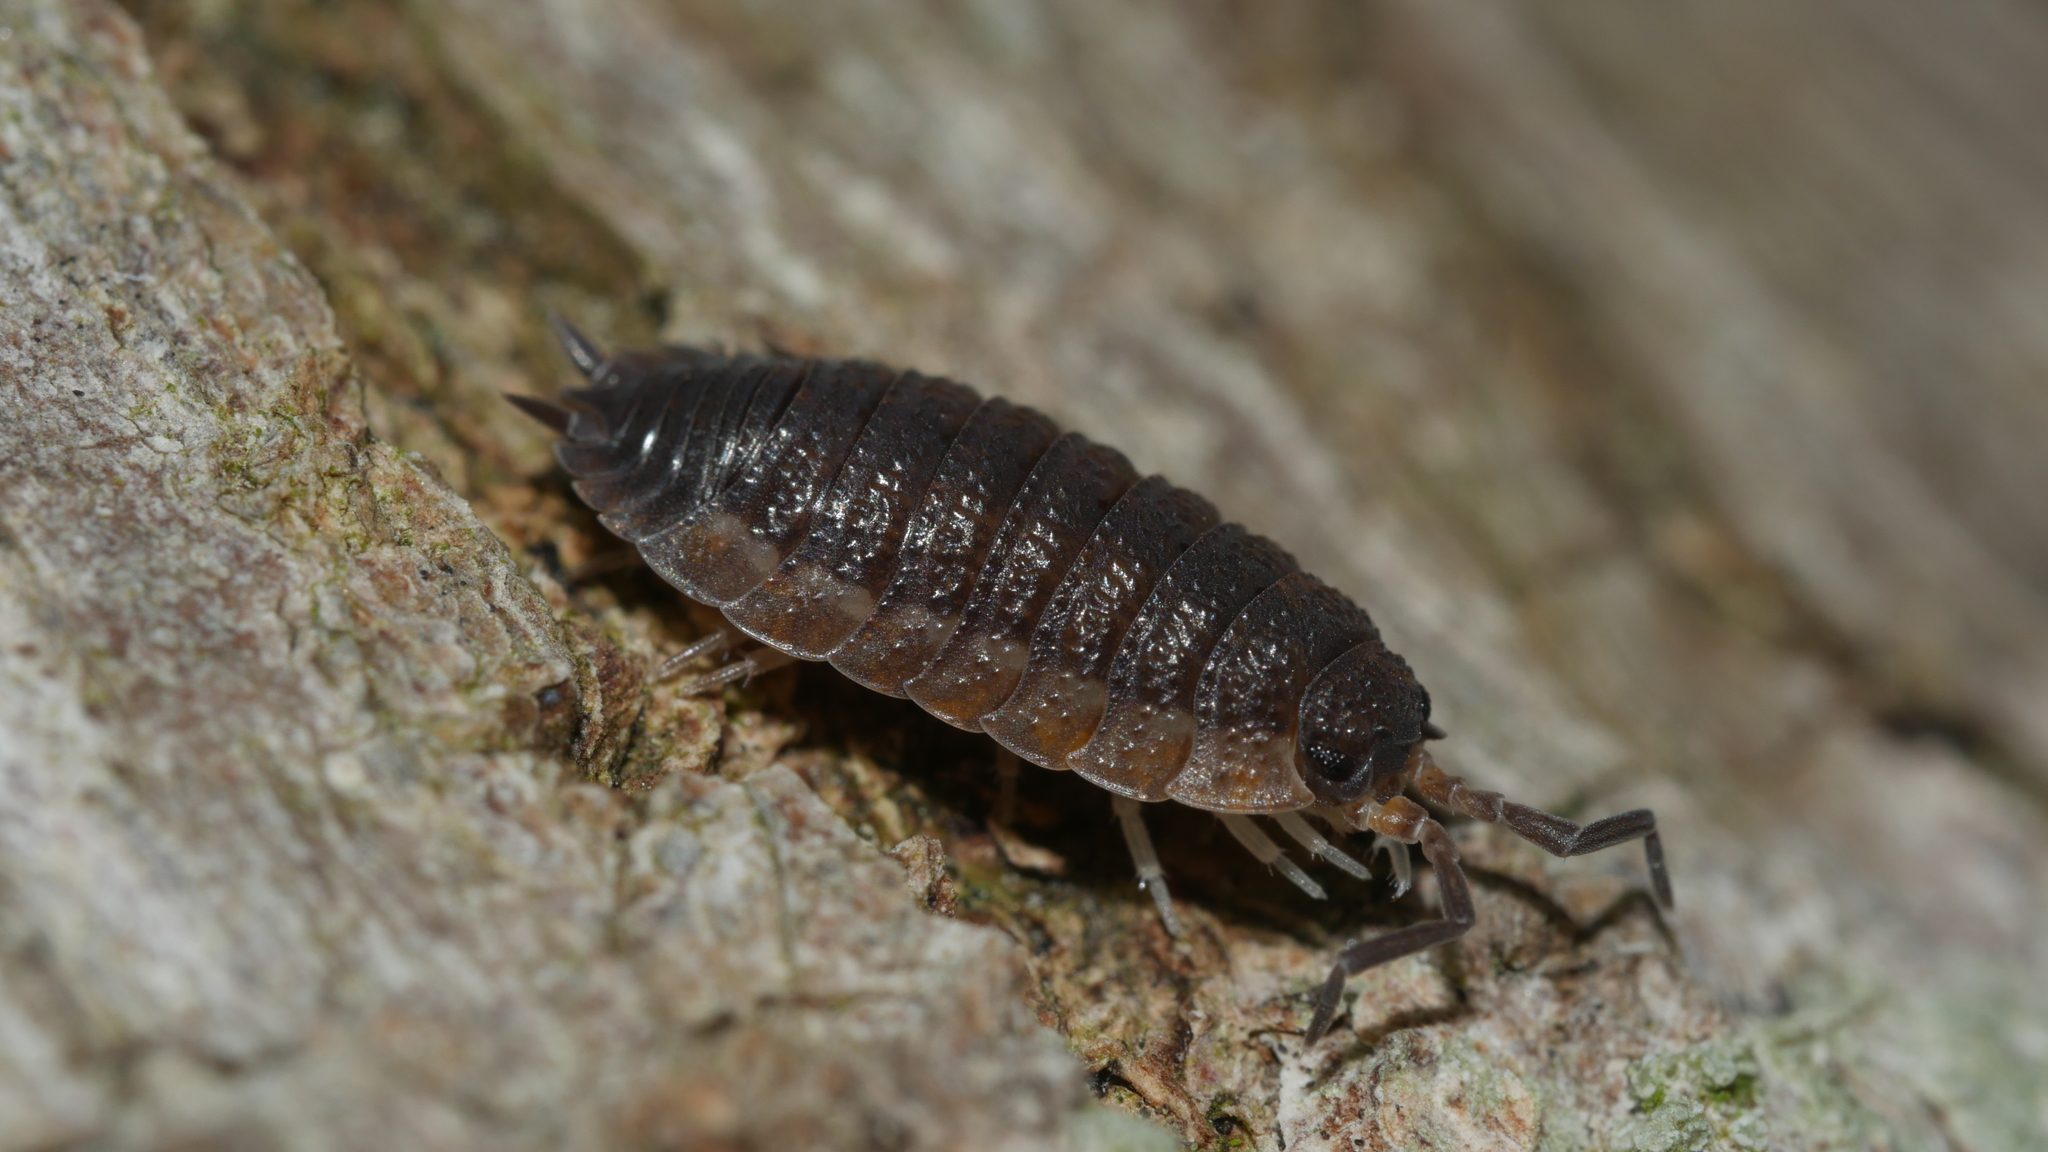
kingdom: Animalia
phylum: Arthropoda
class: Malacostraca
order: Isopoda
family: Porcellionidae
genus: Porcellio
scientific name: Porcellio scaber
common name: Common rough woodlouse
